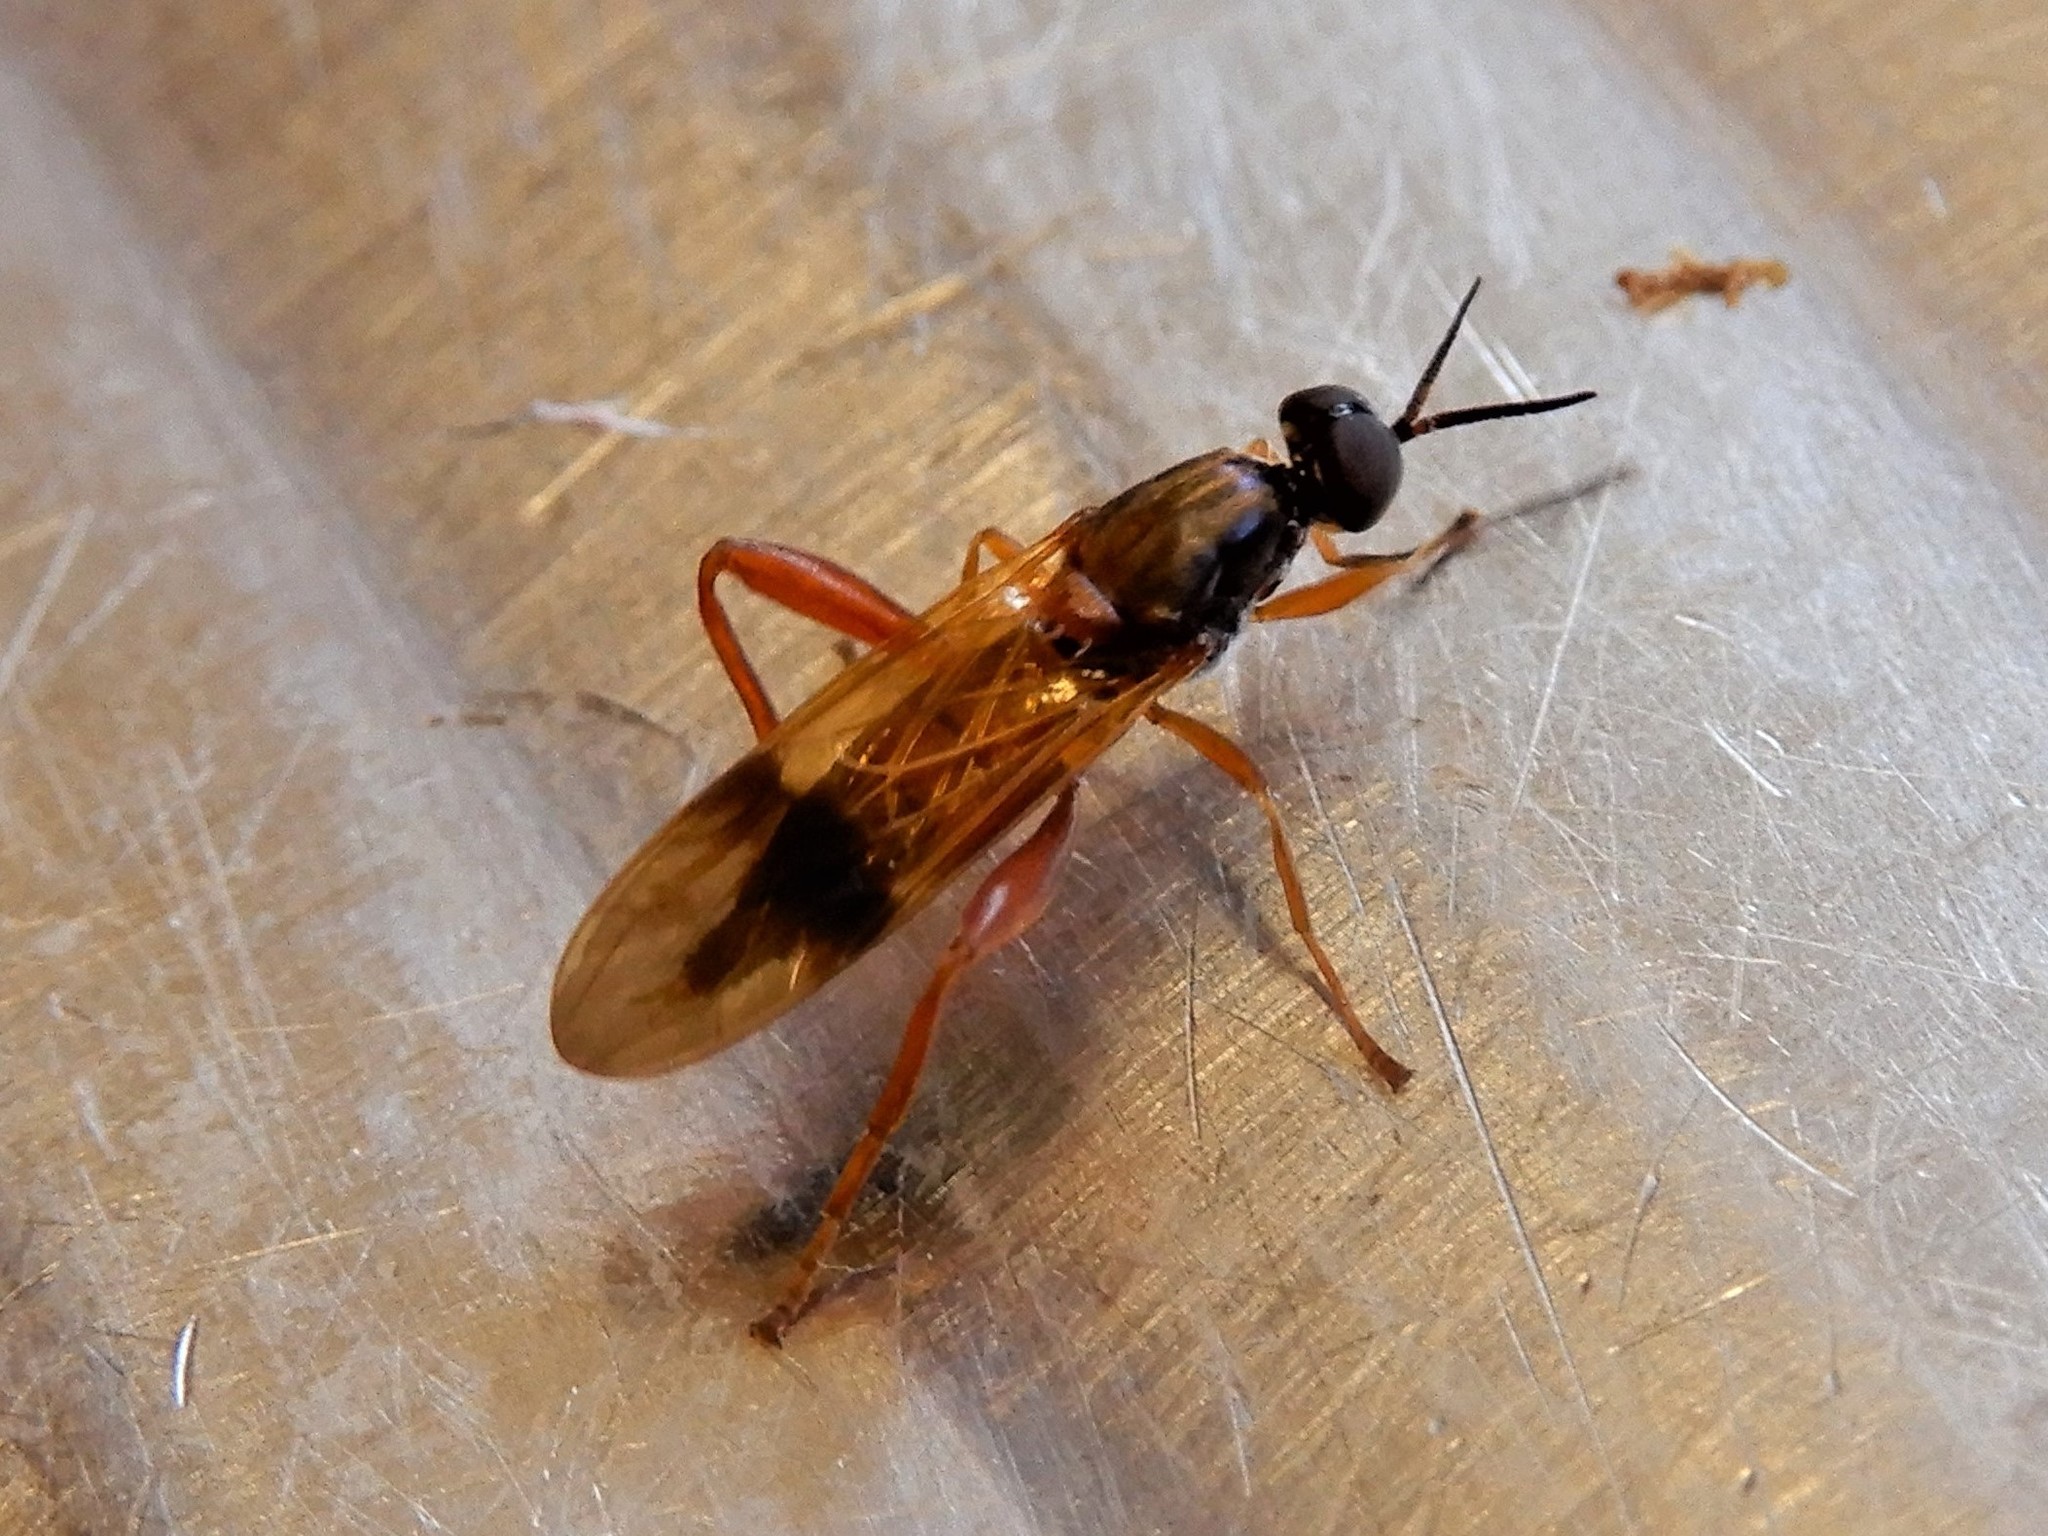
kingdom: Animalia
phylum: Arthropoda
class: Insecta
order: Diptera
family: Stratiomyidae
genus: Benhamyia
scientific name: Benhamyia apicalis
